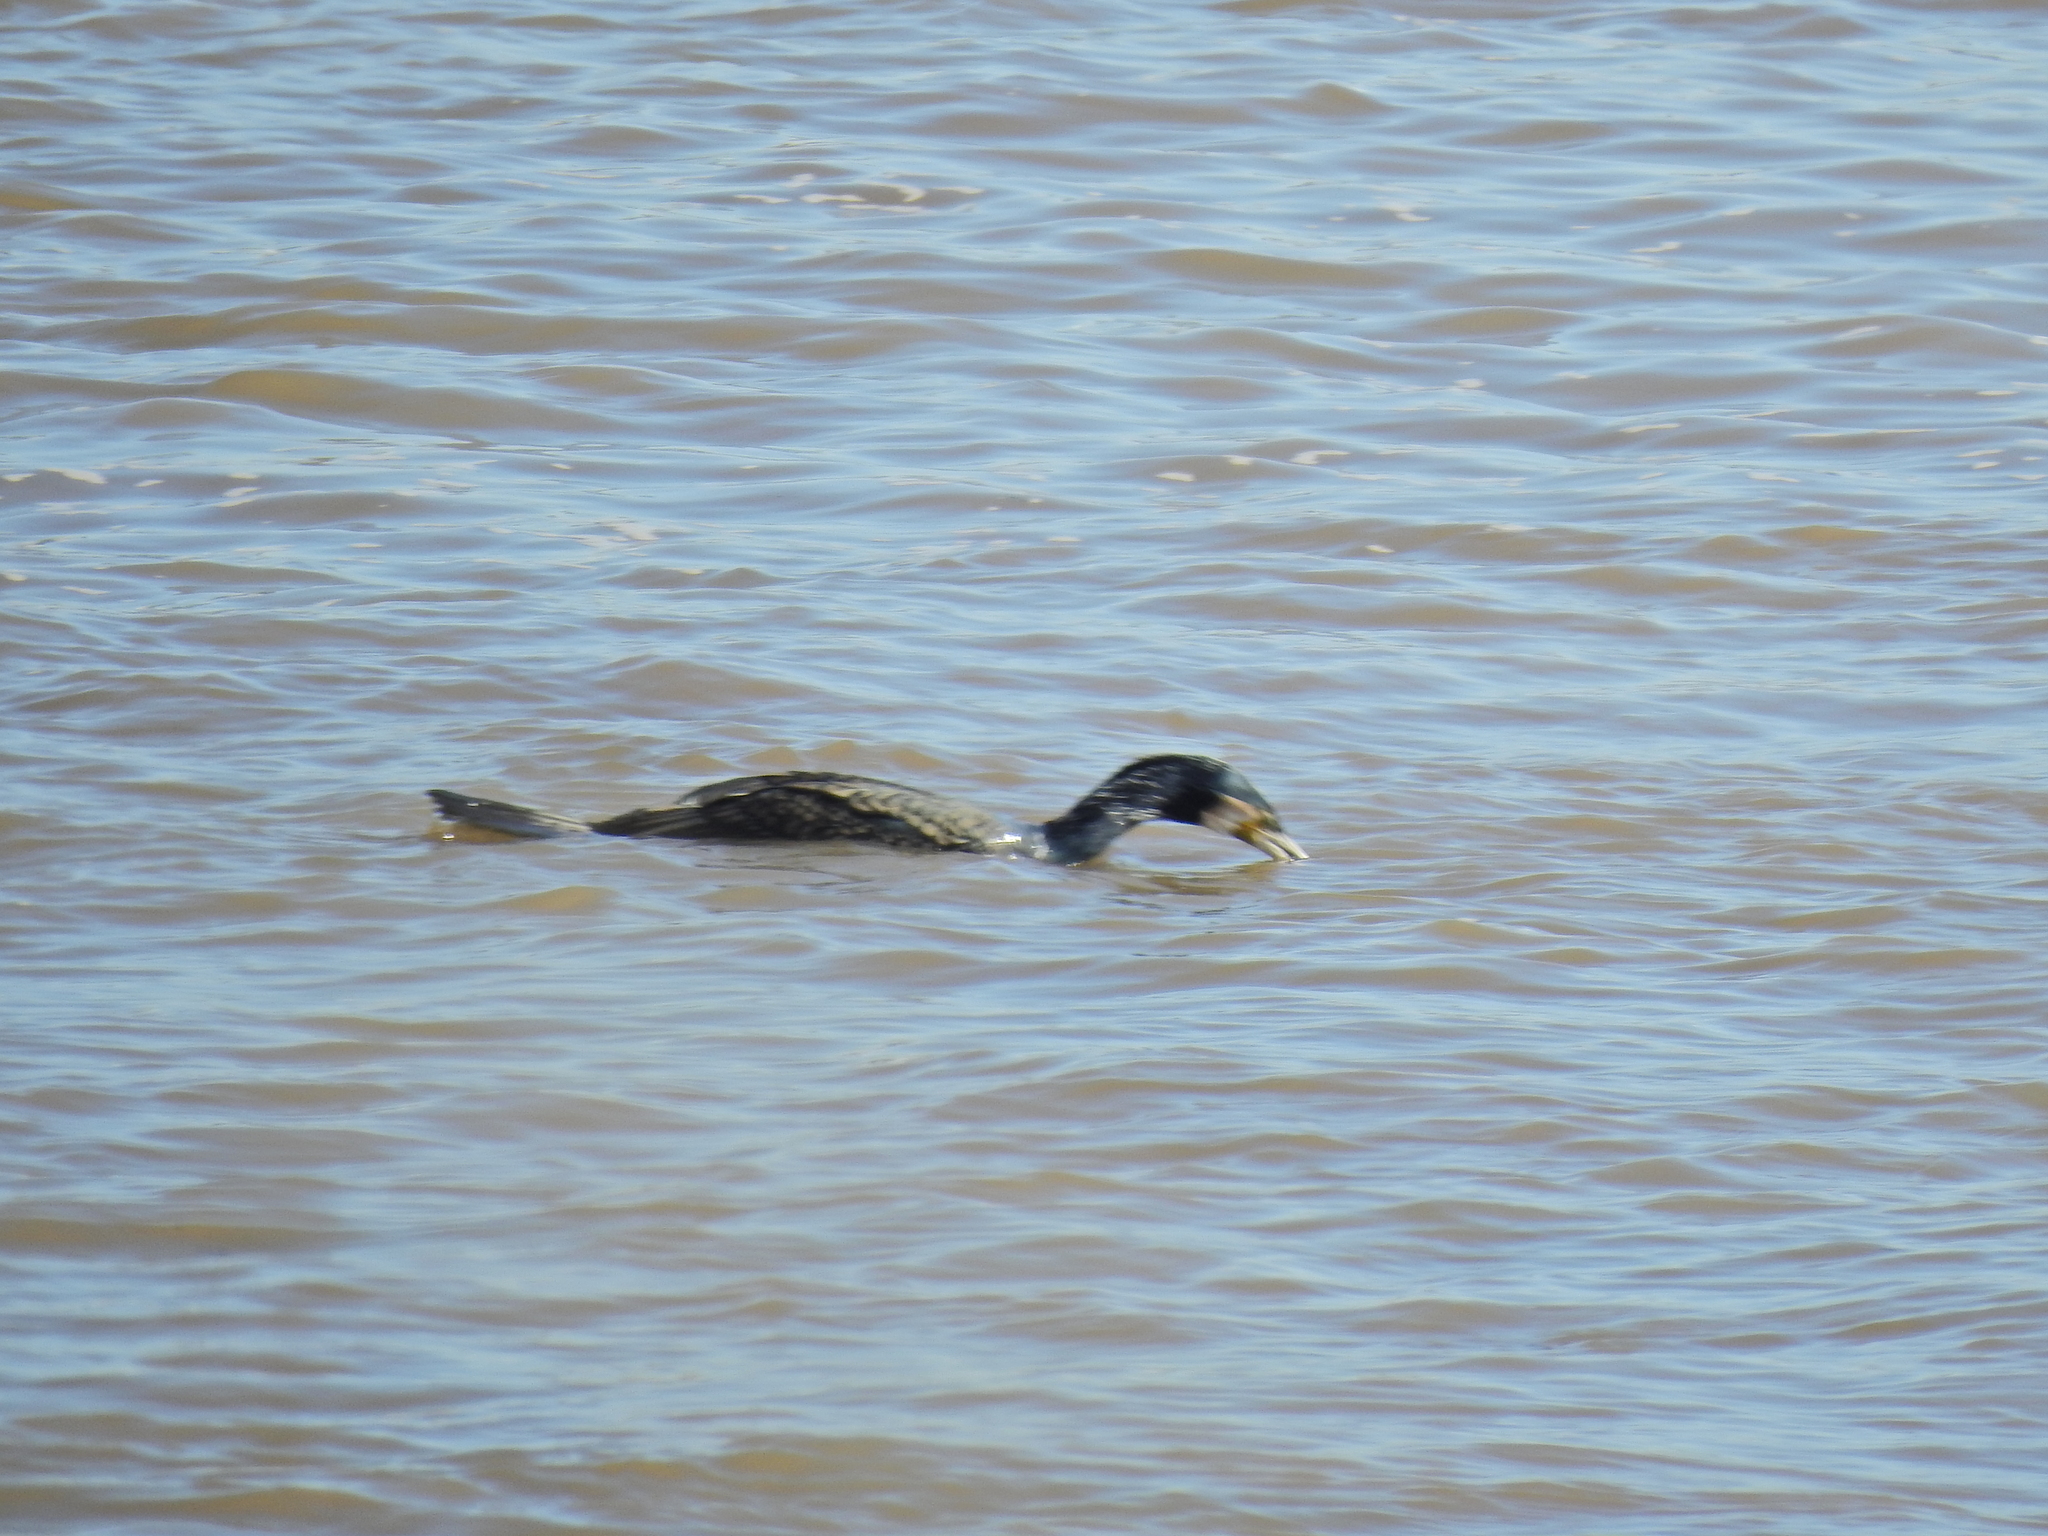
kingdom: Animalia
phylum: Chordata
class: Aves
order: Suliformes
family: Phalacrocoracidae
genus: Phalacrocorax
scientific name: Phalacrocorax carbo
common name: Great cormorant
